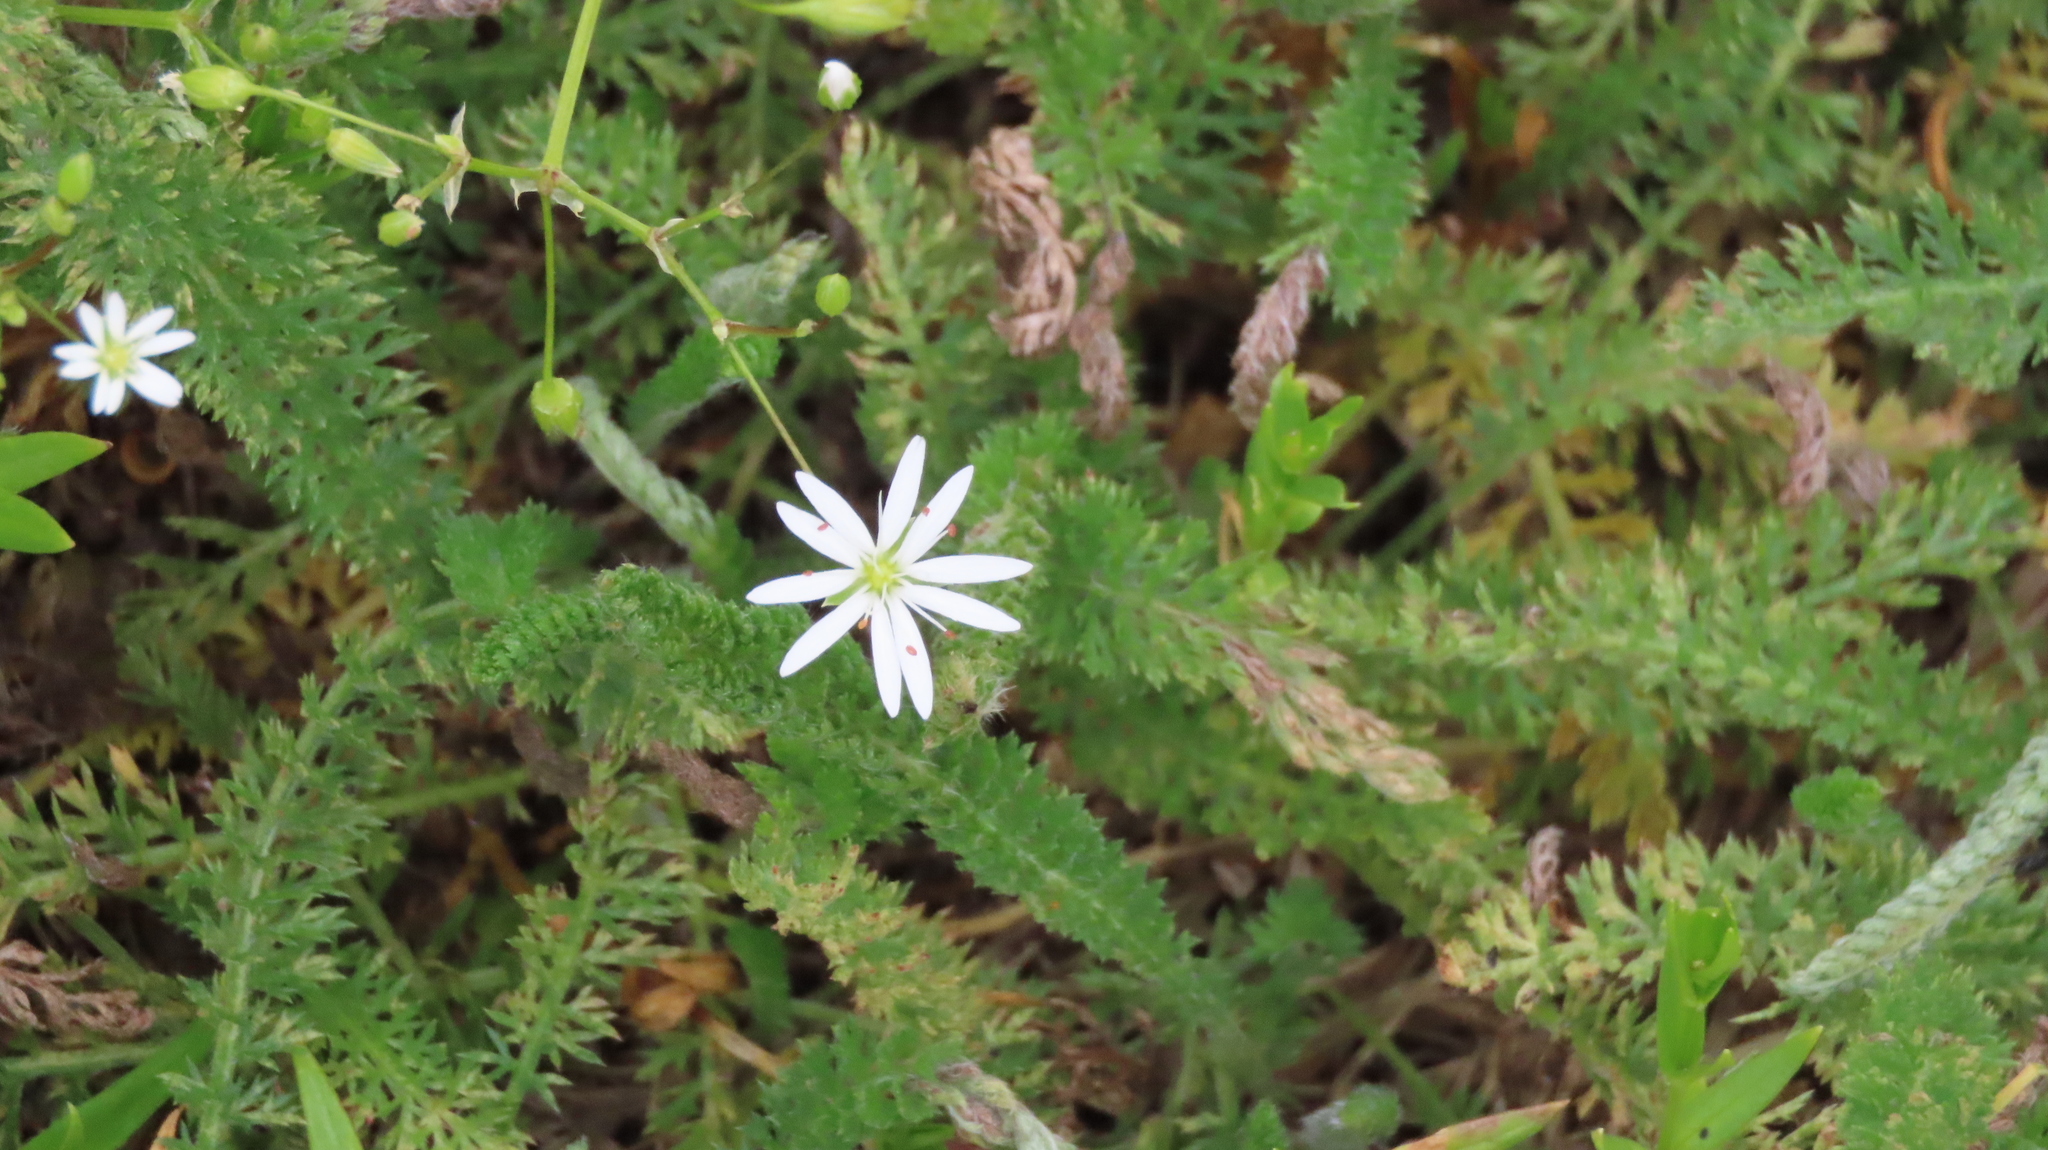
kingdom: Plantae
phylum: Tracheophyta
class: Magnoliopsida
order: Caryophyllales
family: Caryophyllaceae
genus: Stellaria
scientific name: Stellaria graminea
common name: Grass-like starwort
